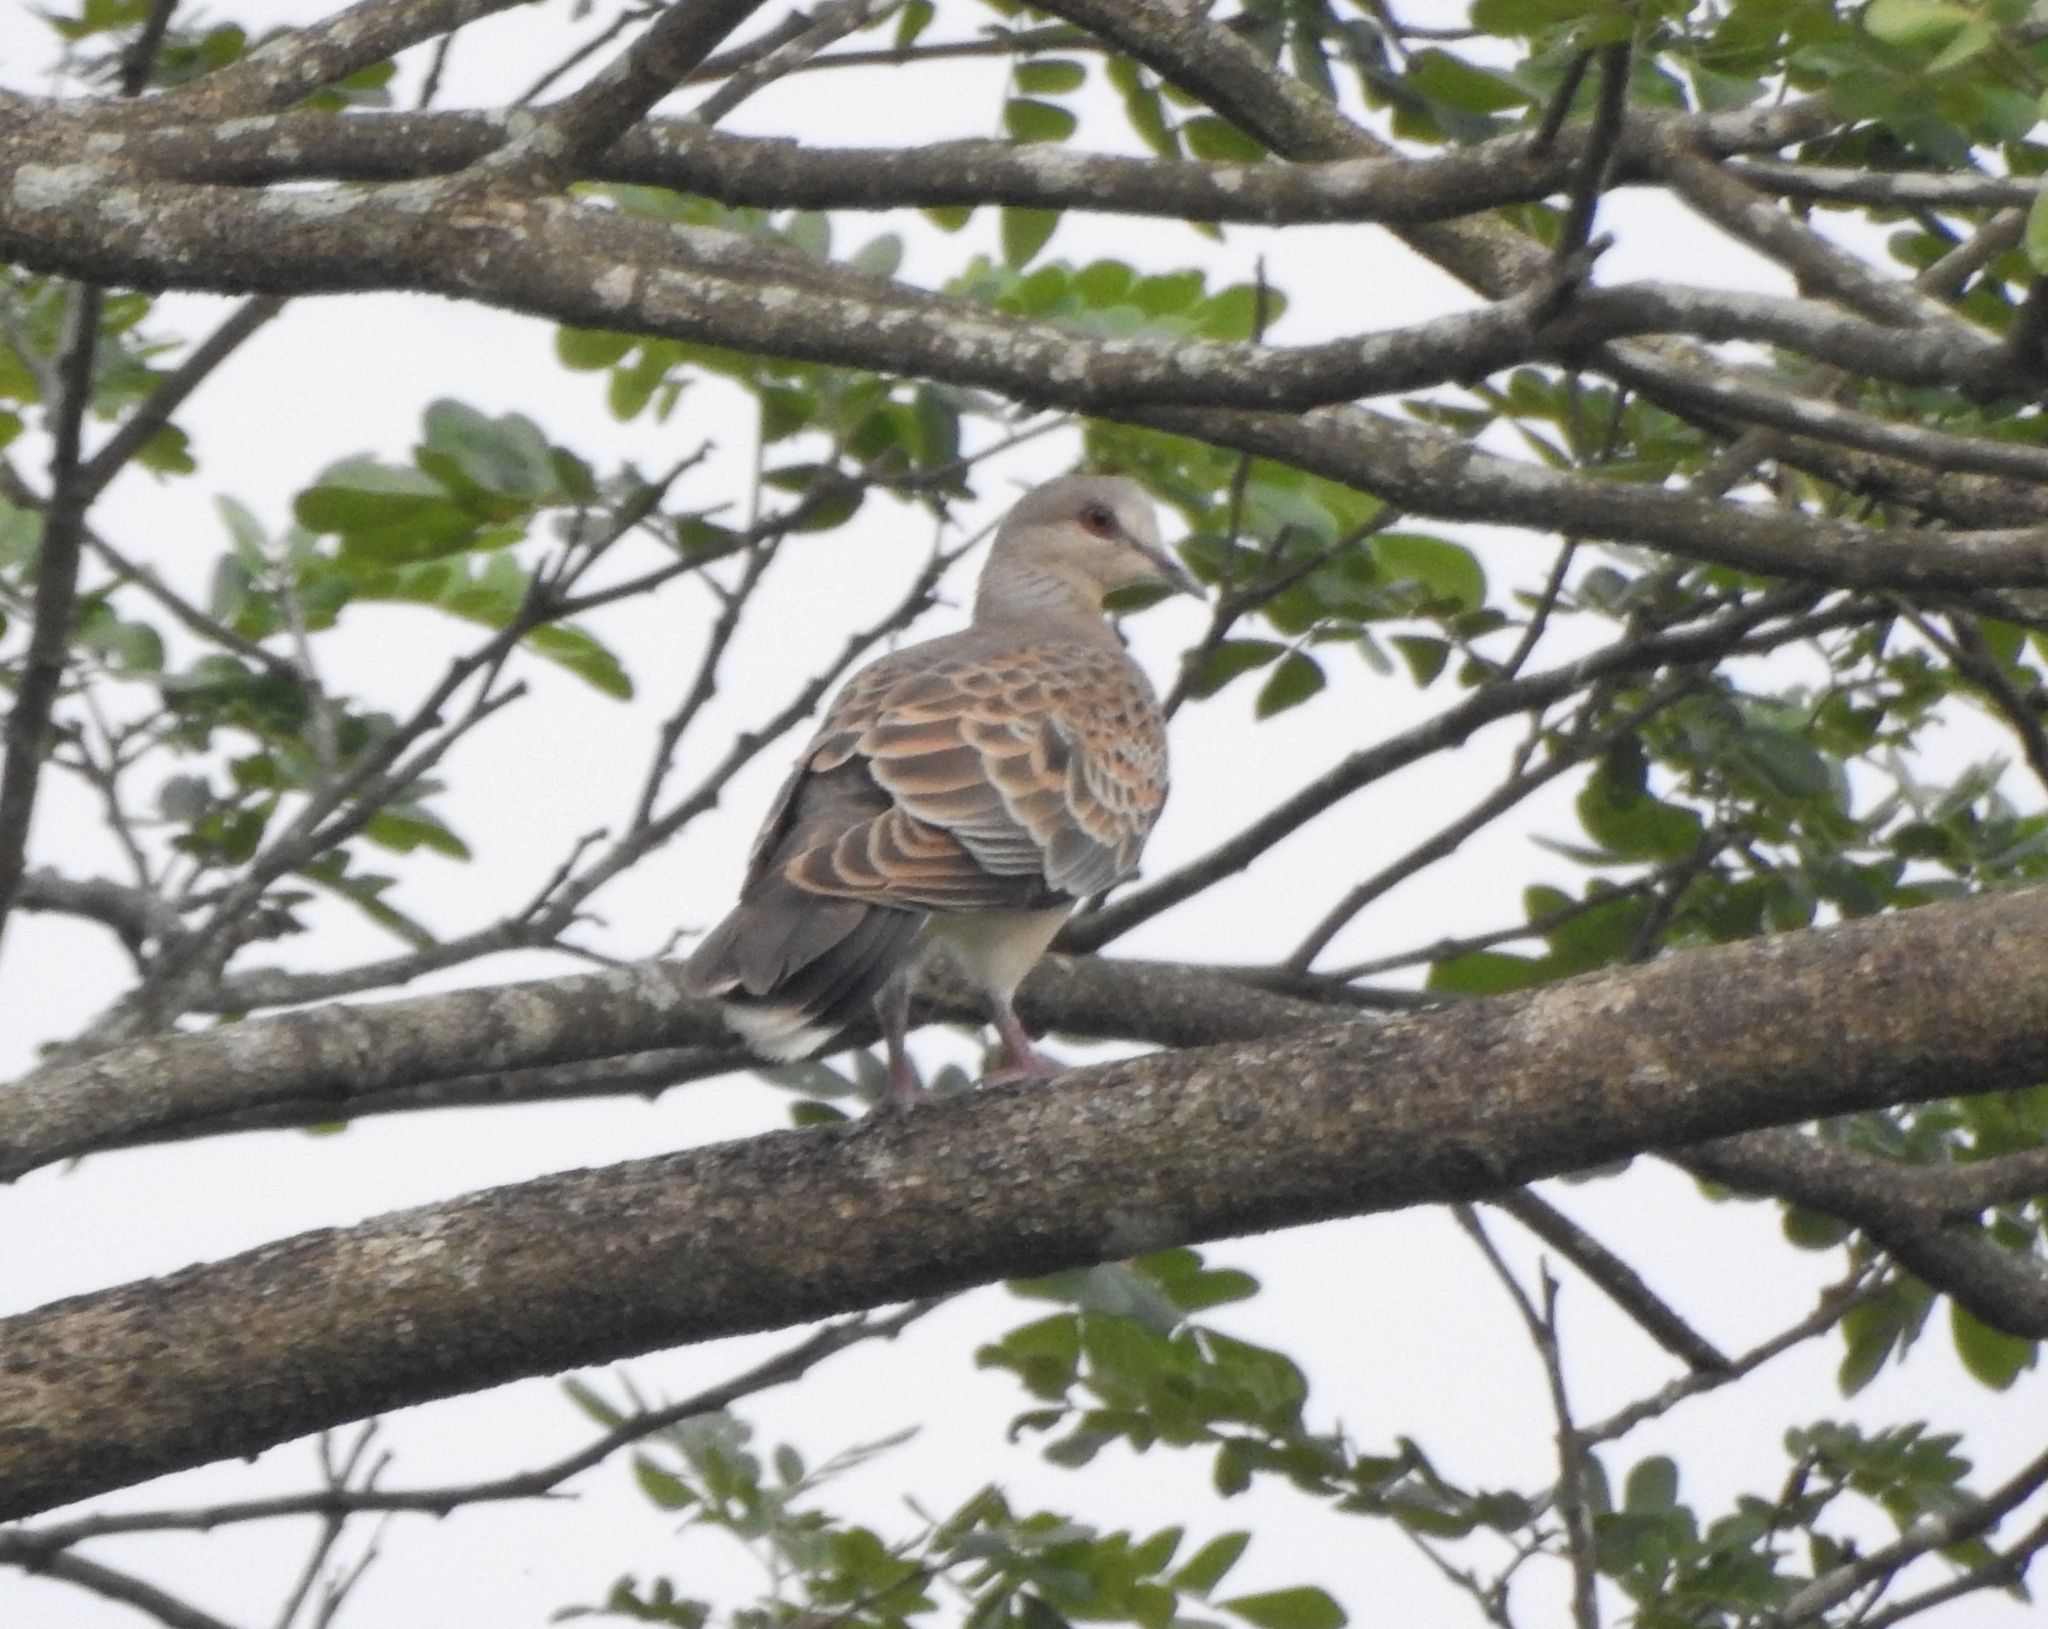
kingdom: Animalia
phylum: Chordata
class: Aves
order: Columbiformes
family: Columbidae
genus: Streptopelia
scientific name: Streptopelia orientalis
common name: Oriental turtle dove
